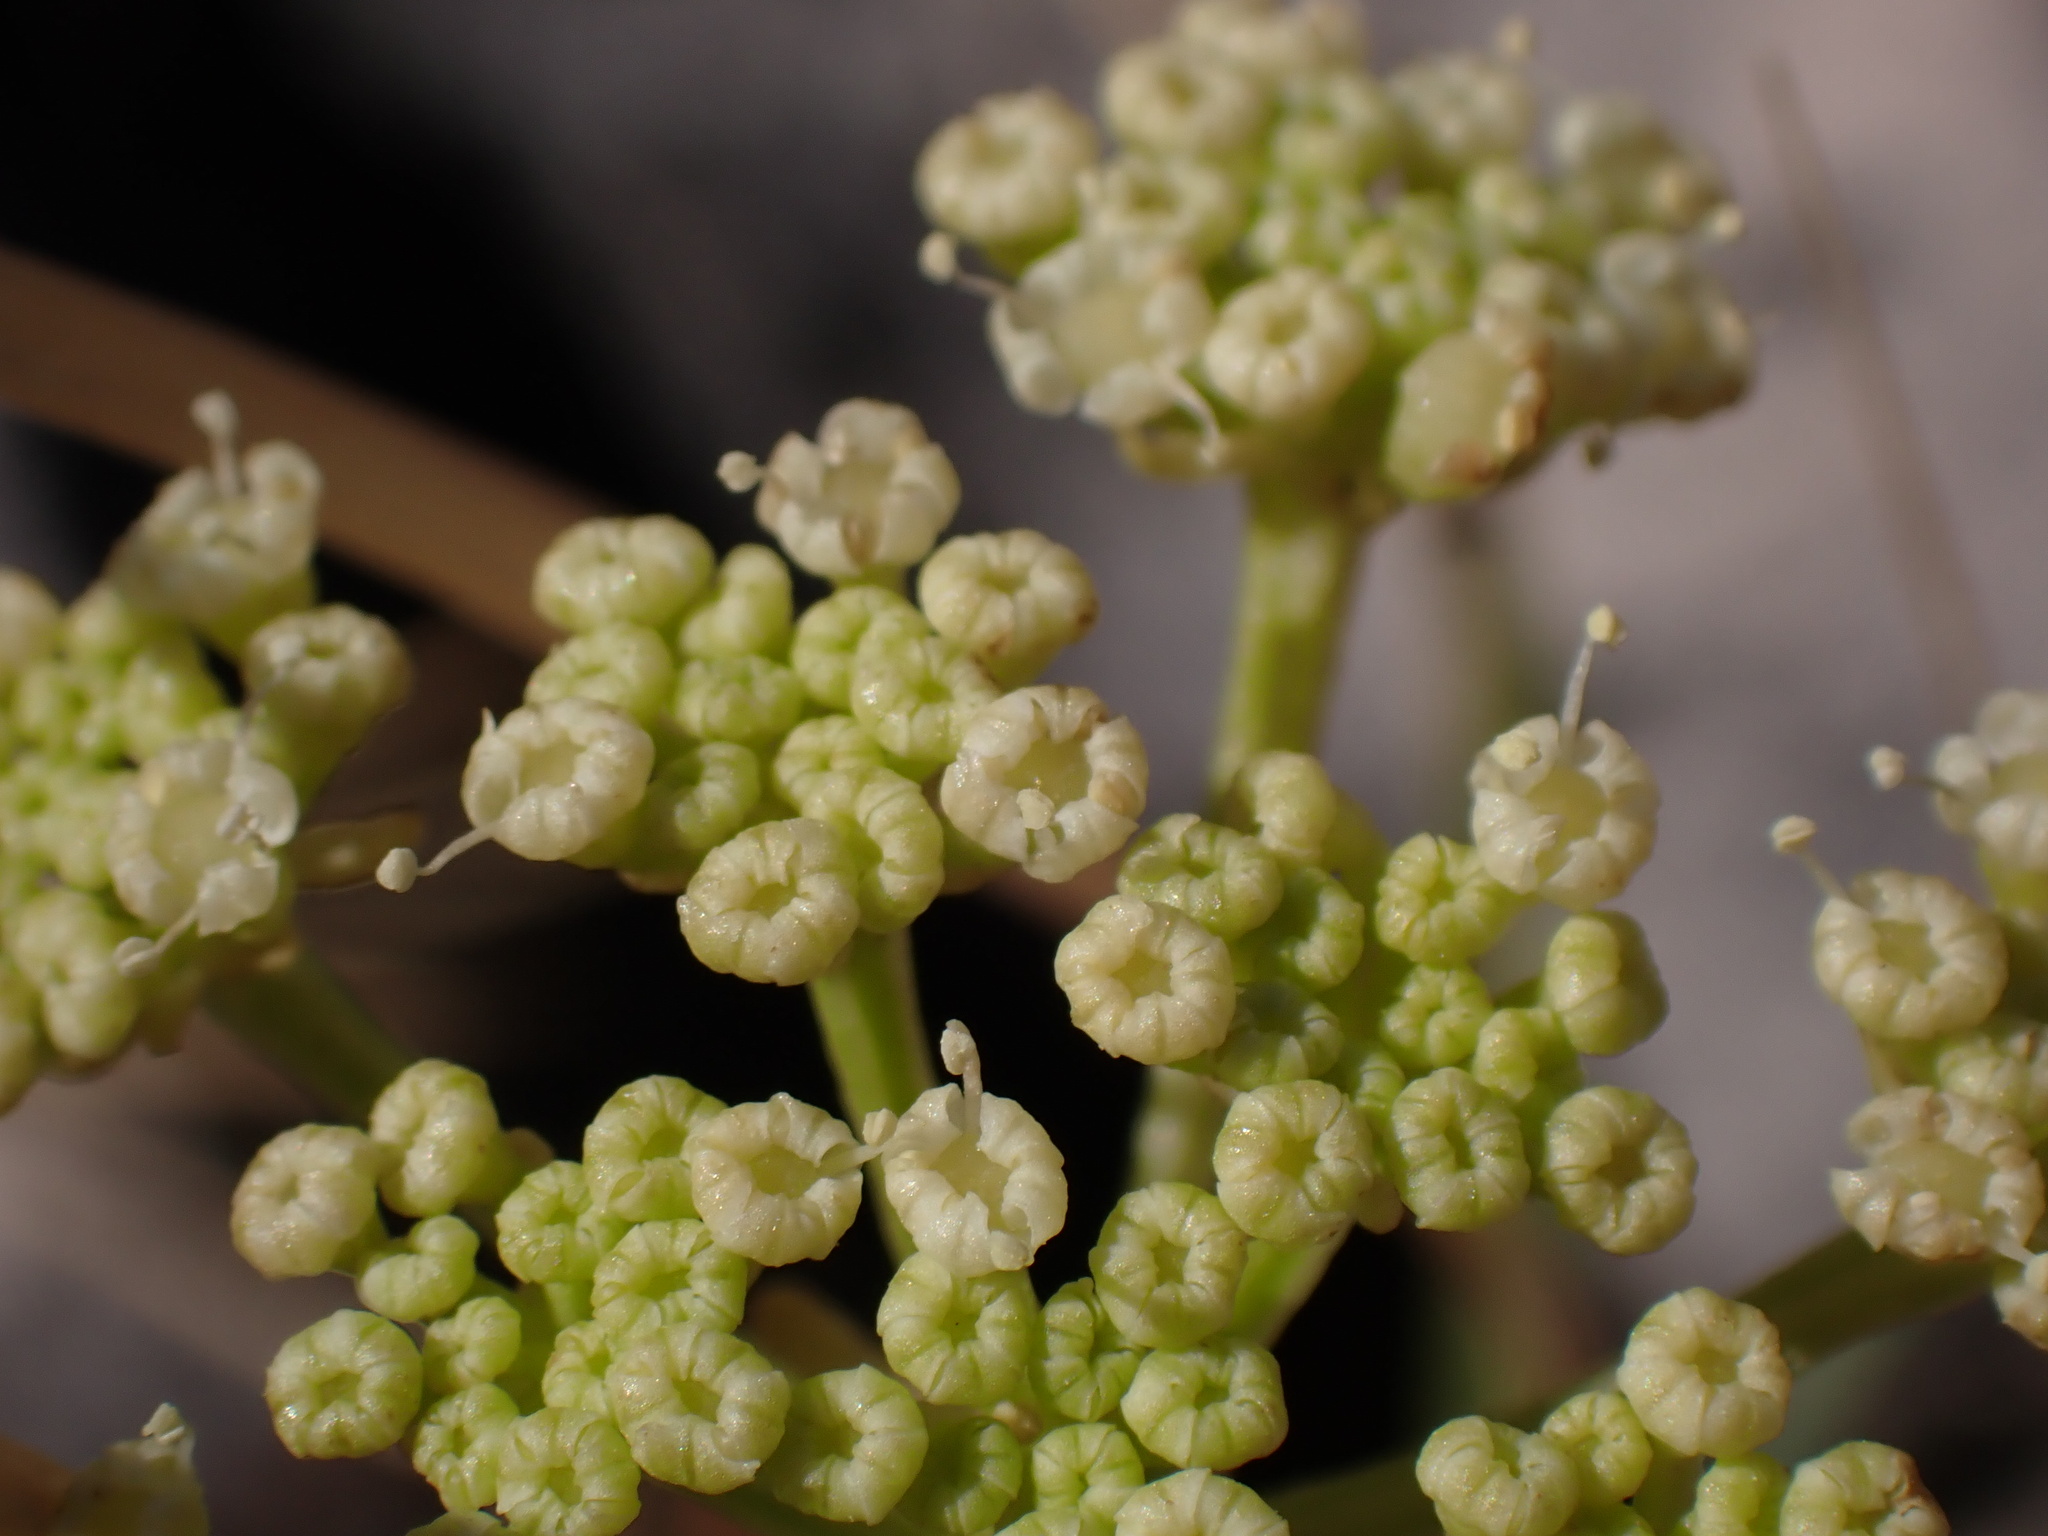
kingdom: Plantae
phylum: Tracheophyta
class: Magnoliopsida
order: Apiales
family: Apiaceae
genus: Crithmum
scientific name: Crithmum maritimum
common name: Rock samphire
